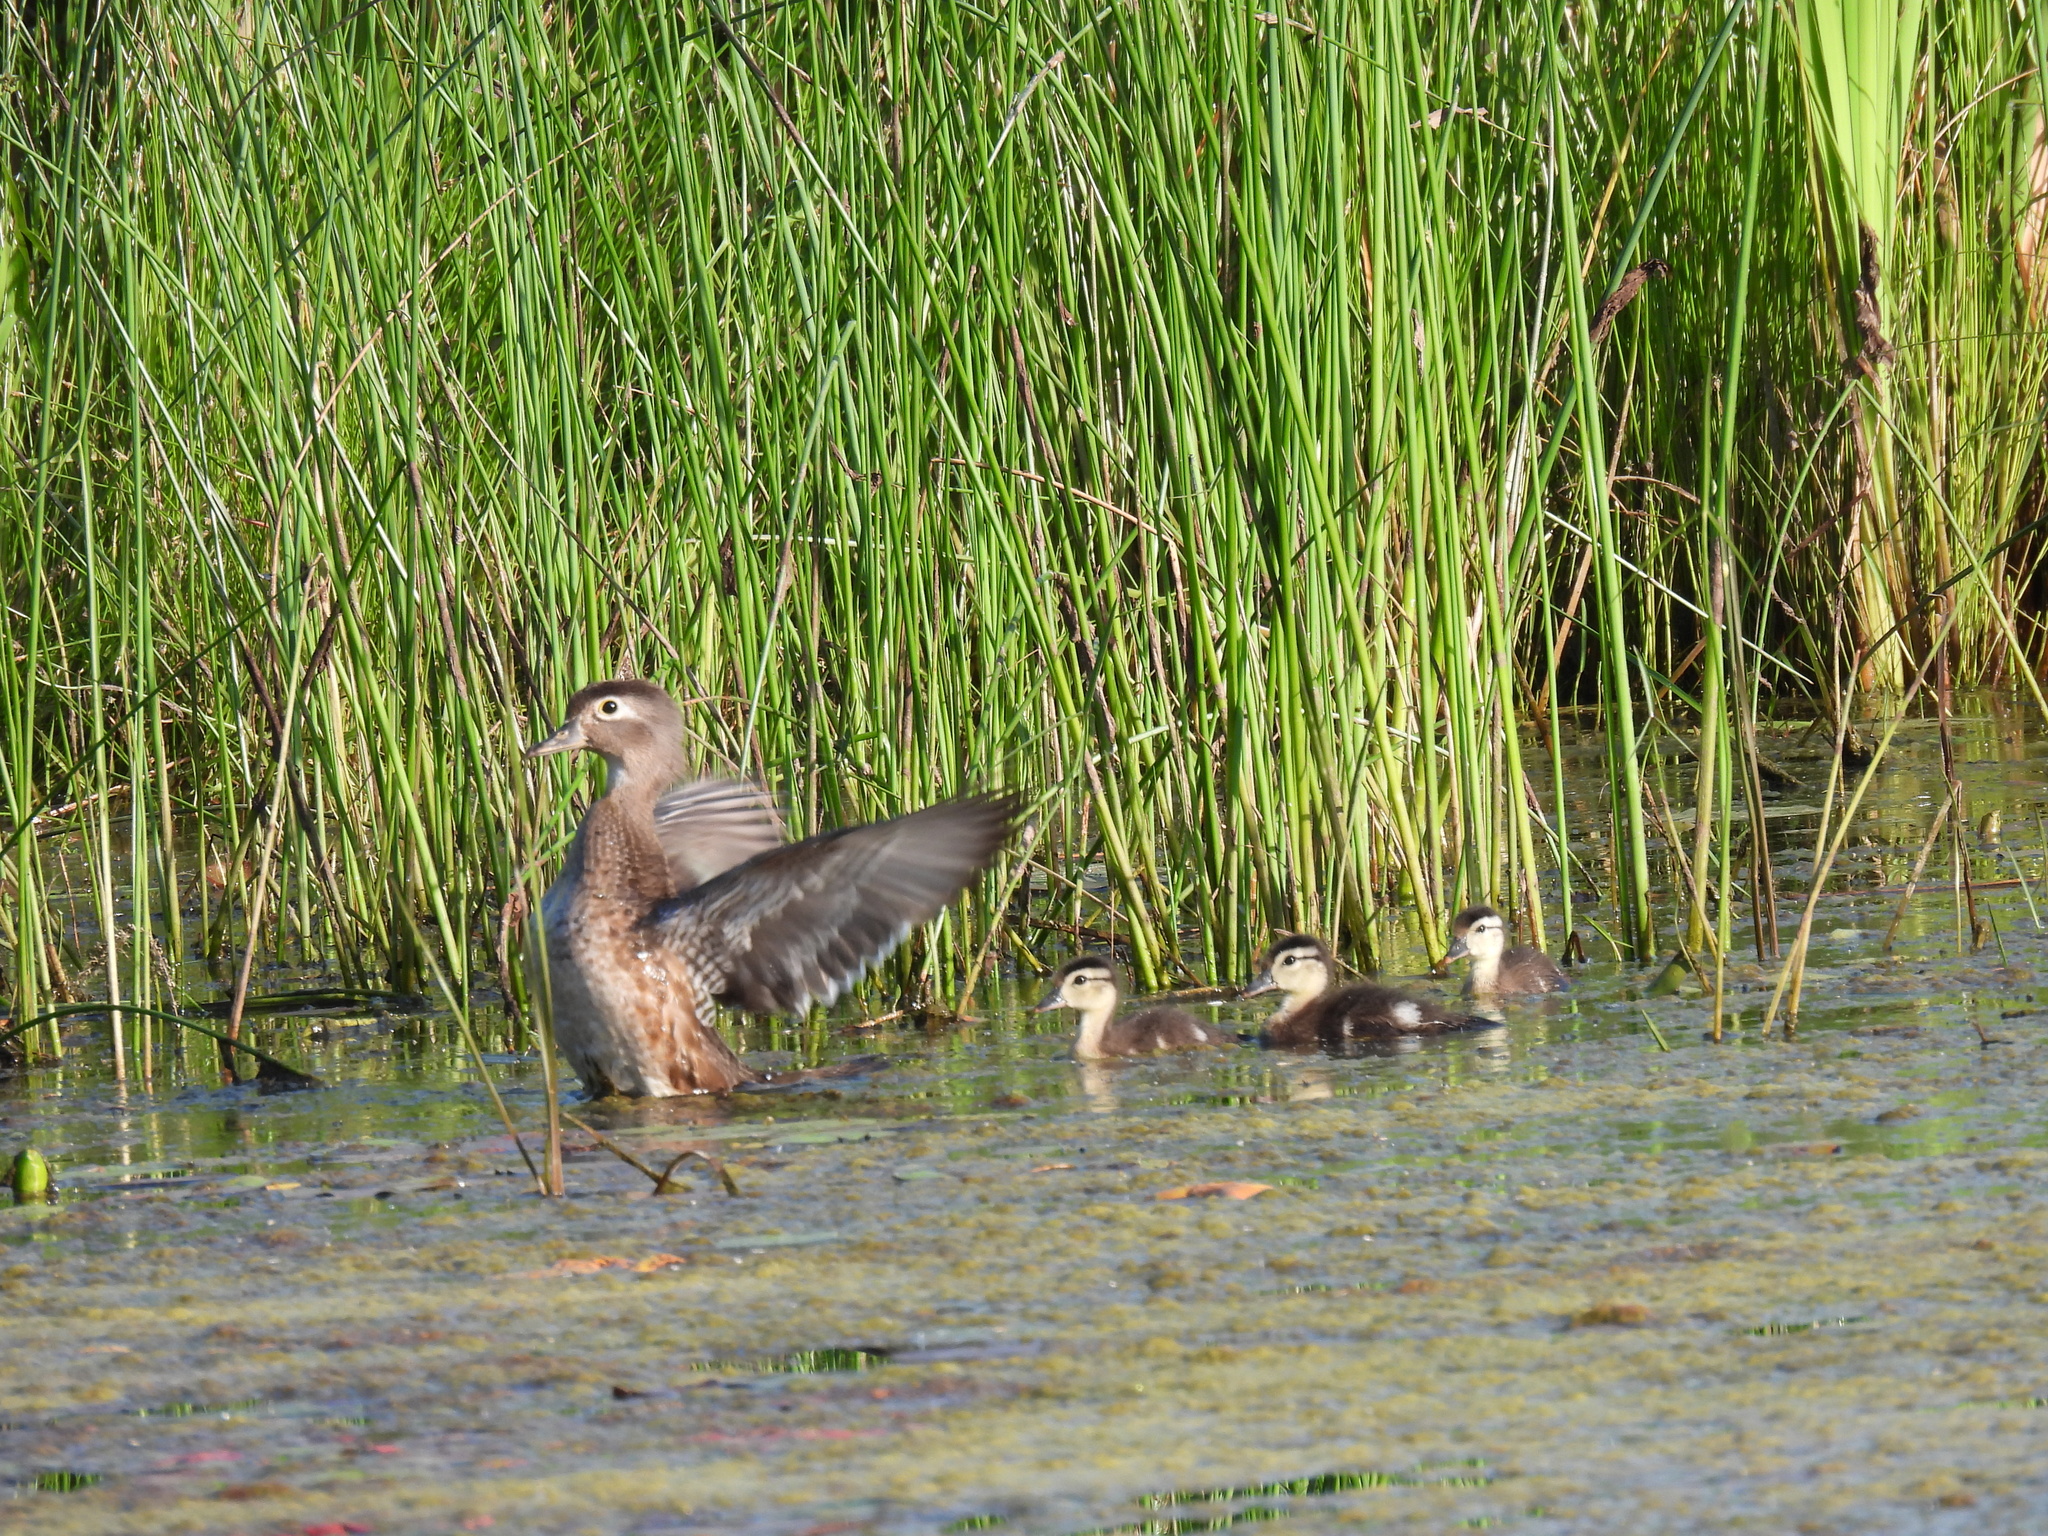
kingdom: Animalia
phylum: Chordata
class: Aves
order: Anseriformes
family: Anatidae
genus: Aix
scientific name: Aix sponsa
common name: Wood duck
